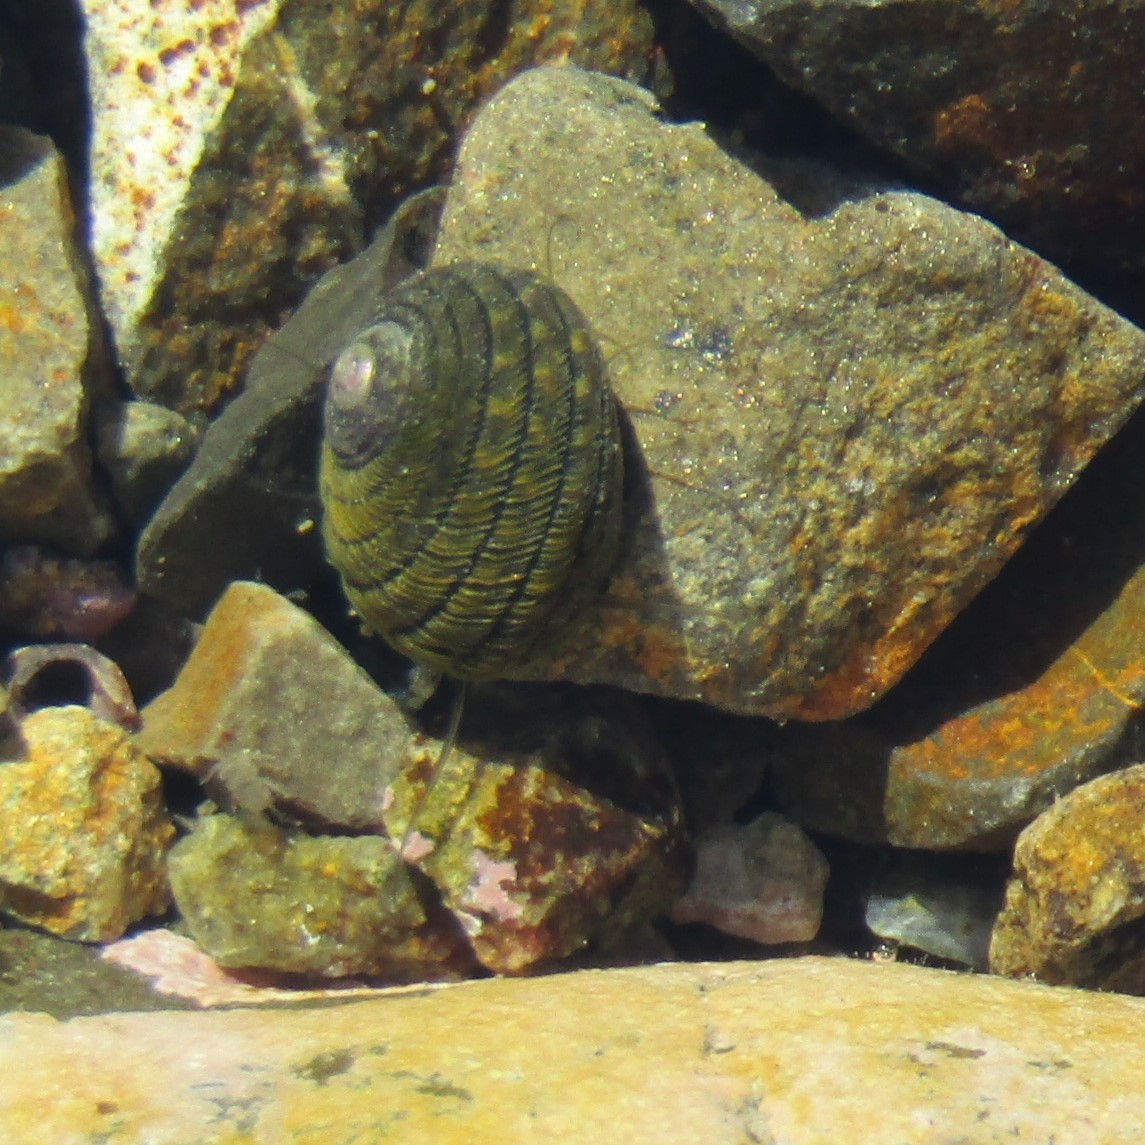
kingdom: Animalia
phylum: Mollusca
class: Gastropoda
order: Trochida
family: Trochidae
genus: Diloma
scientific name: Diloma aethiops
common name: Scorched monodont
